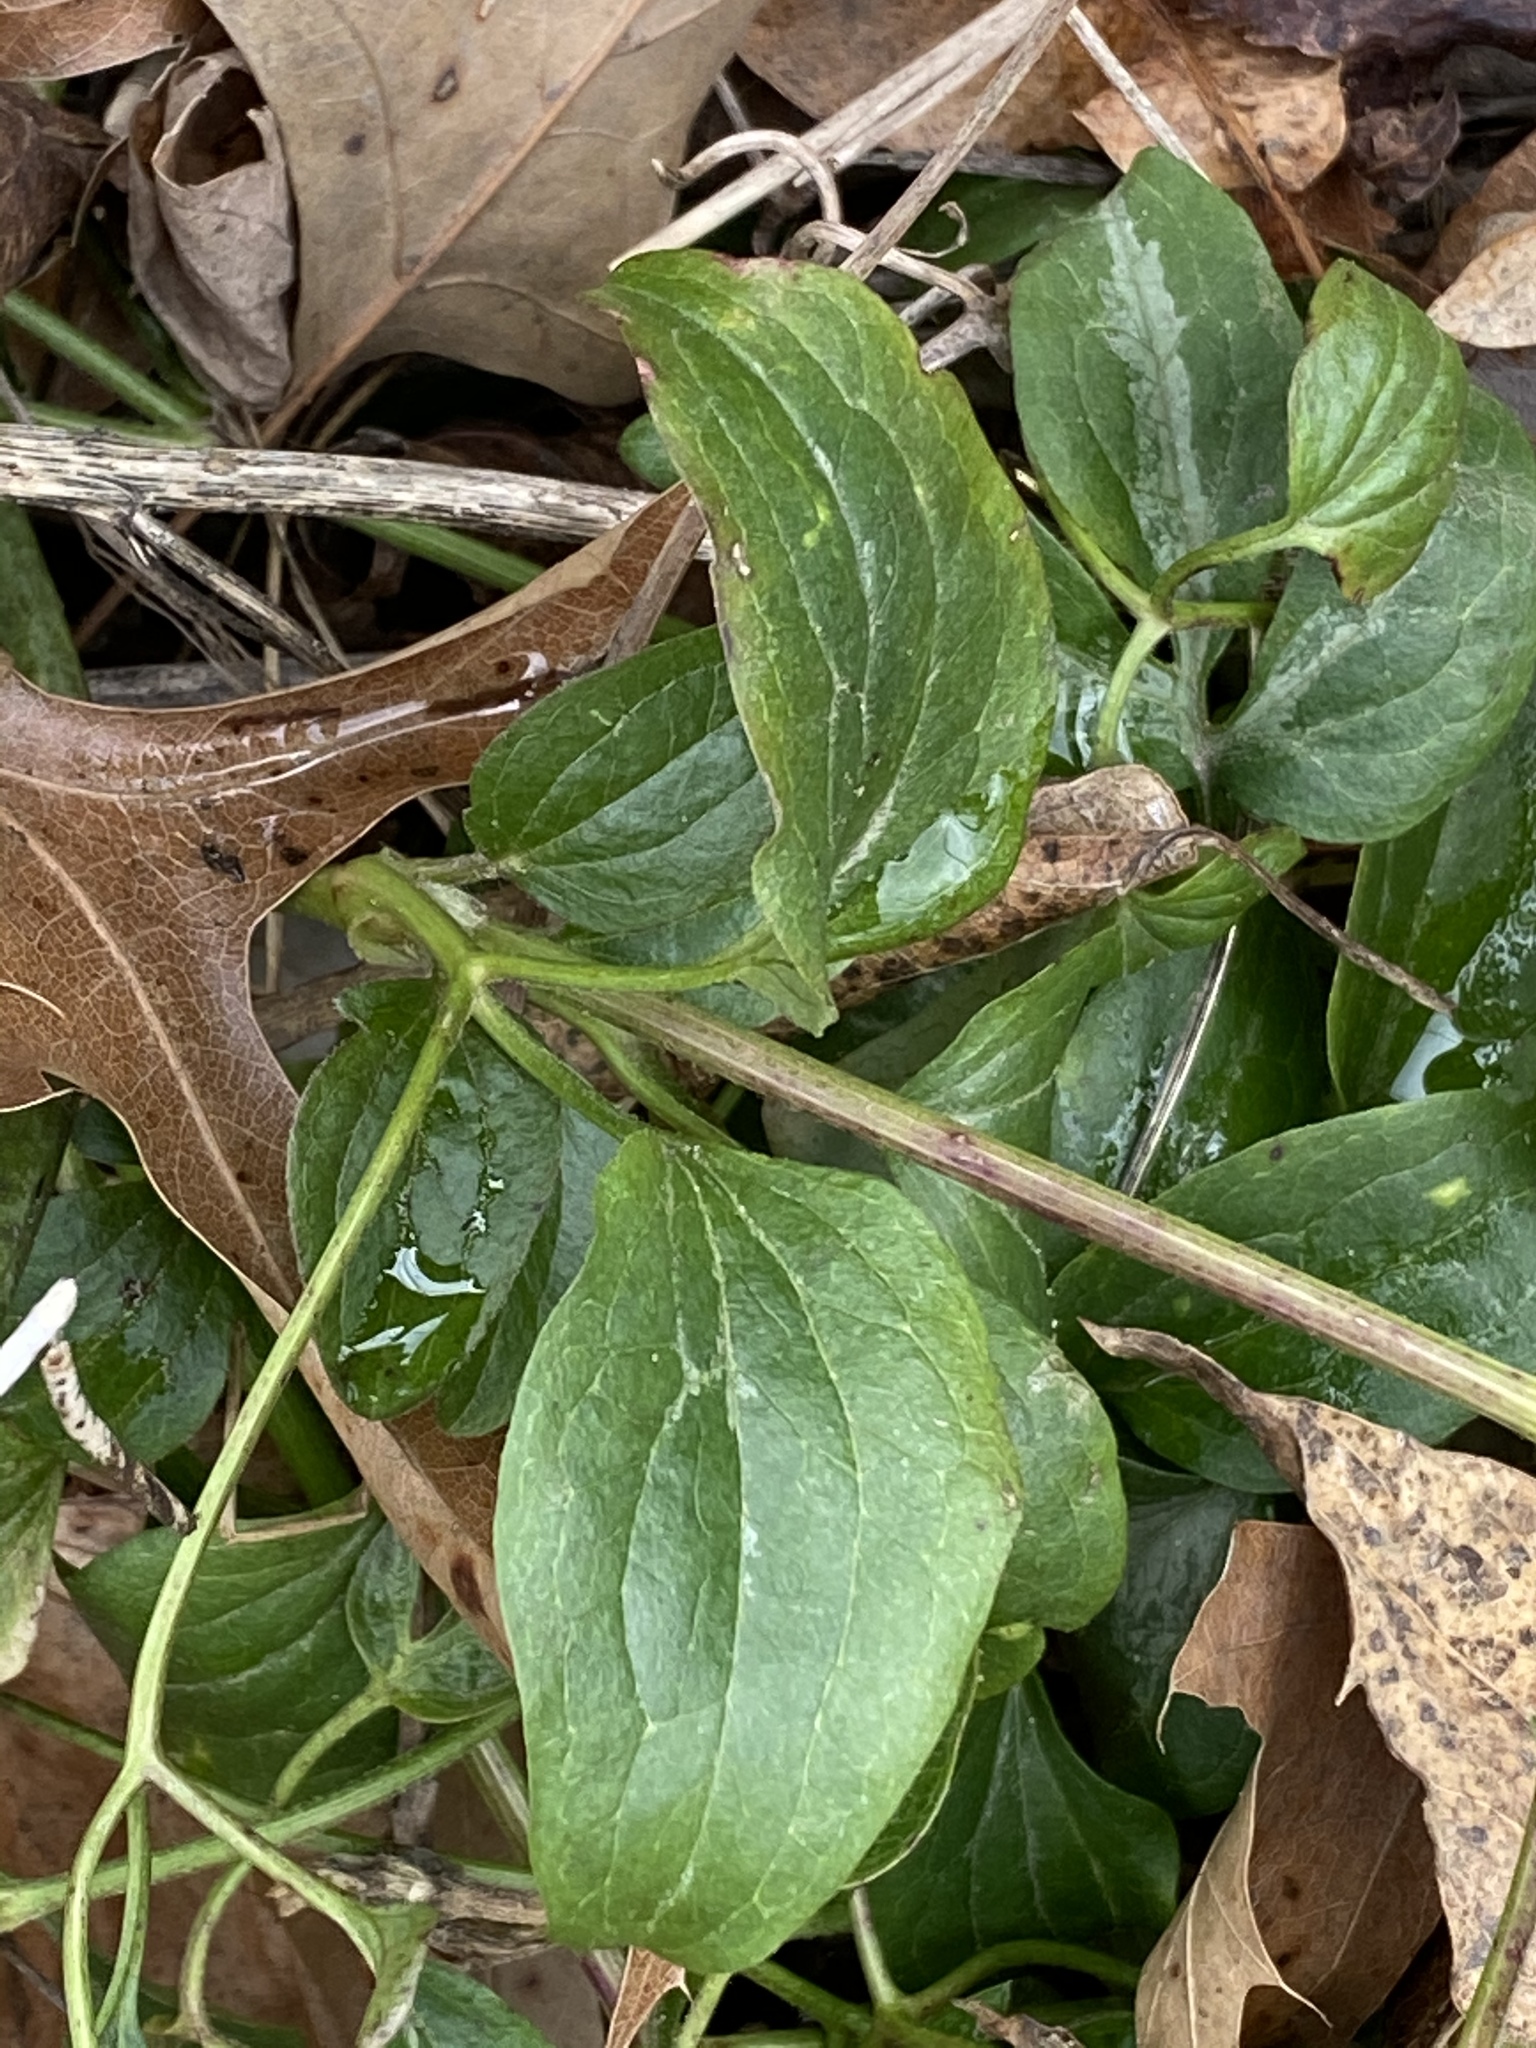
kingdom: Plantae
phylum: Tracheophyta
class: Magnoliopsida
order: Ranunculales
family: Ranunculaceae
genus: Clematis
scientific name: Clematis terniflora
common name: Sweet autumn clematis
